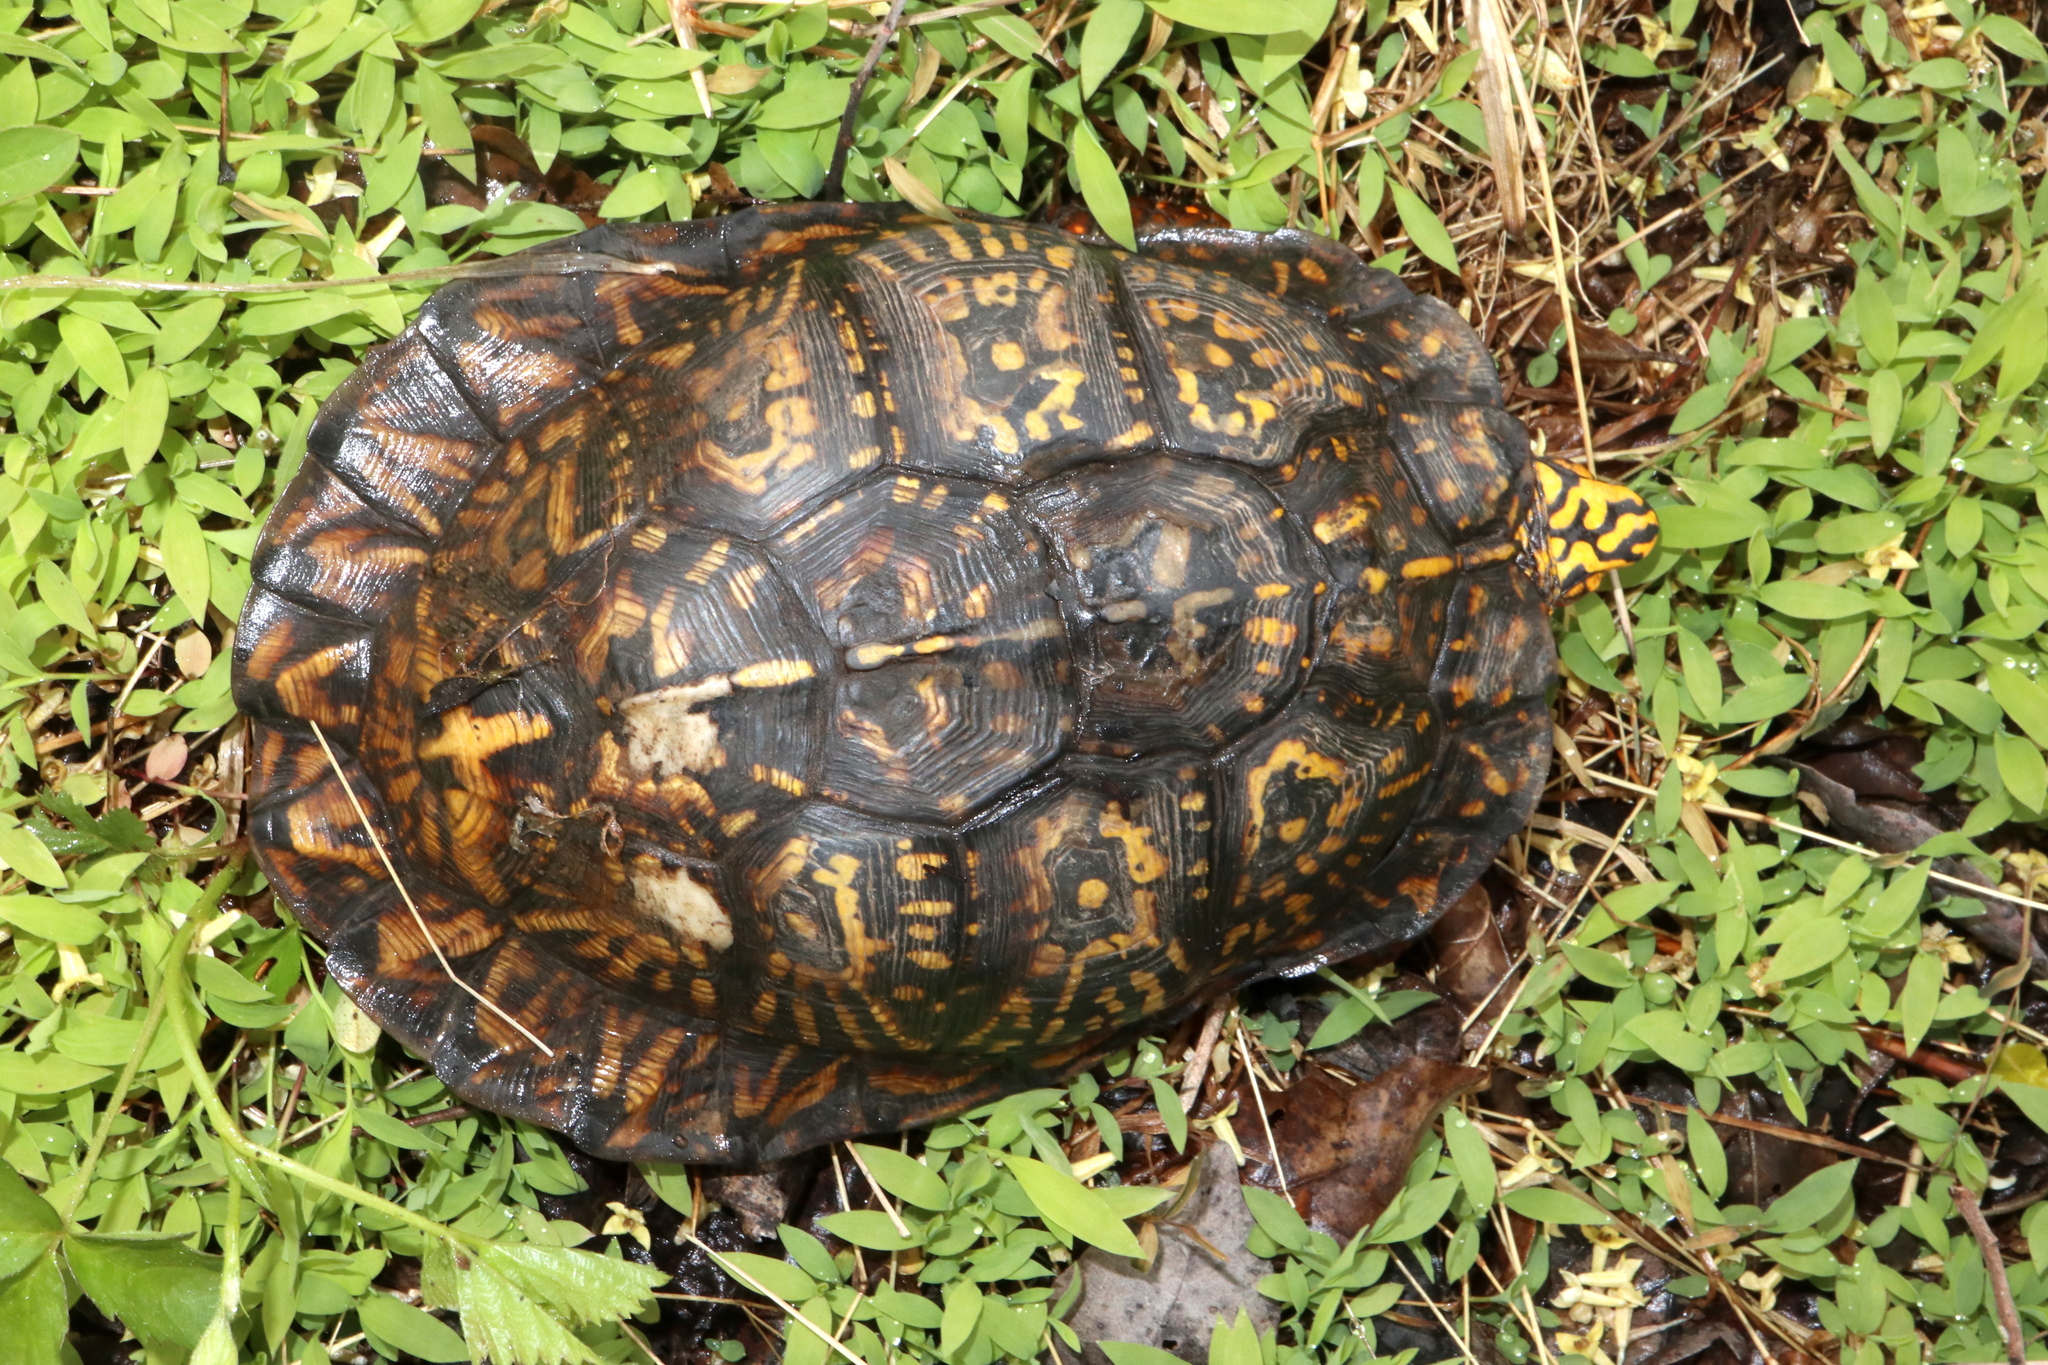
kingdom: Animalia
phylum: Chordata
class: Testudines
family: Emydidae
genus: Terrapene
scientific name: Terrapene carolina
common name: Common box turtle
